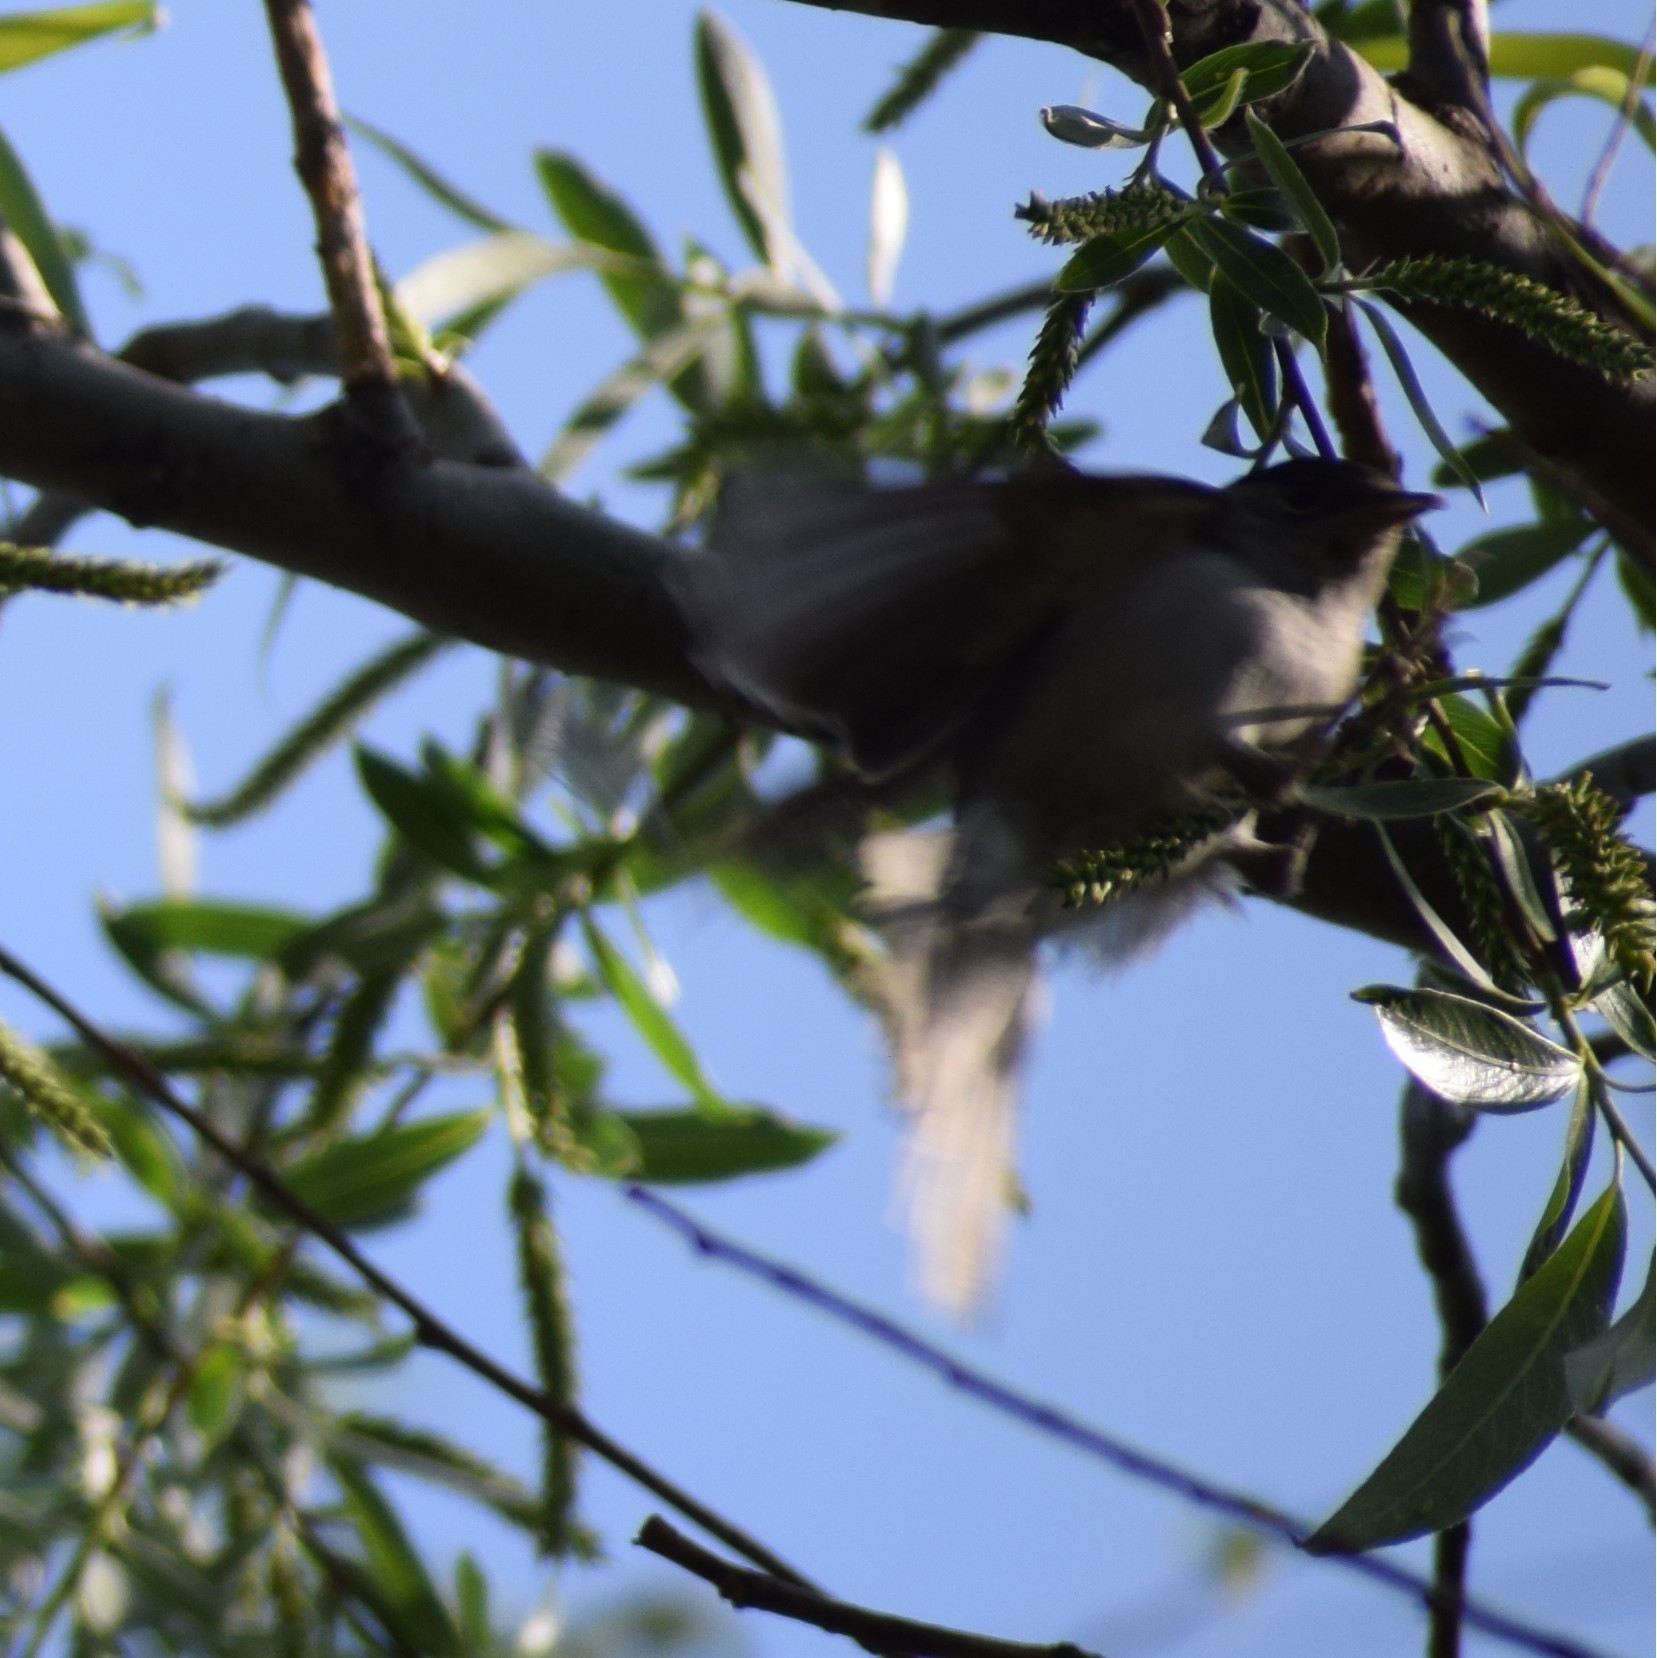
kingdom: Animalia
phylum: Chordata
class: Aves
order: Passeriformes
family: Sylviidae
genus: Sylvia
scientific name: Sylvia atricapilla
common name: Eurasian blackcap
